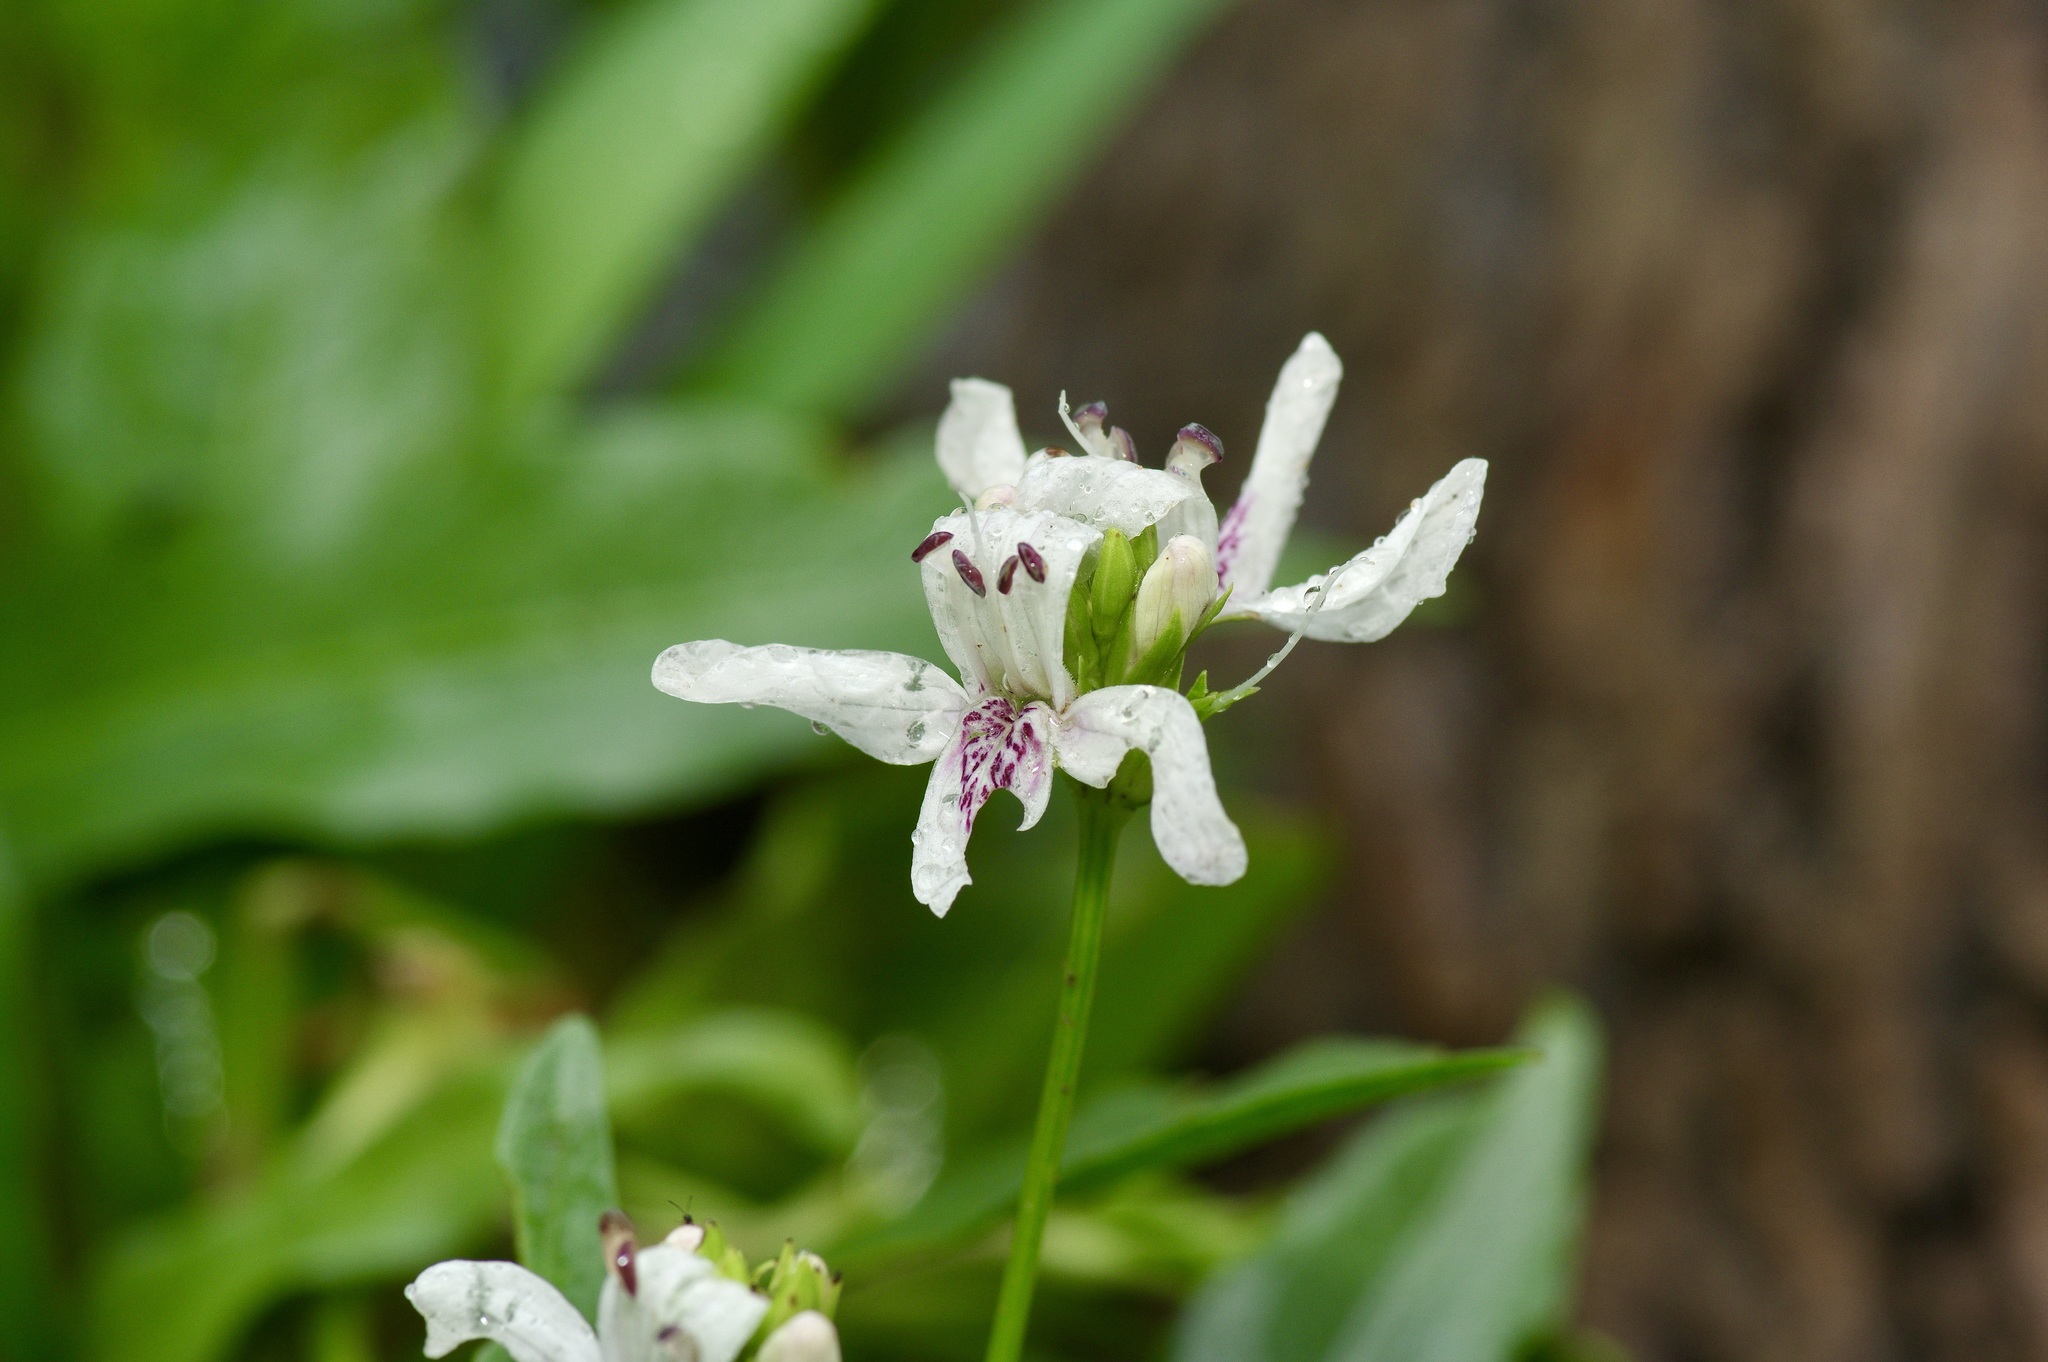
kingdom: Plantae
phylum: Tracheophyta
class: Magnoliopsida
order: Lamiales
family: Acanthaceae
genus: Dianthera
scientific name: Dianthera americana
